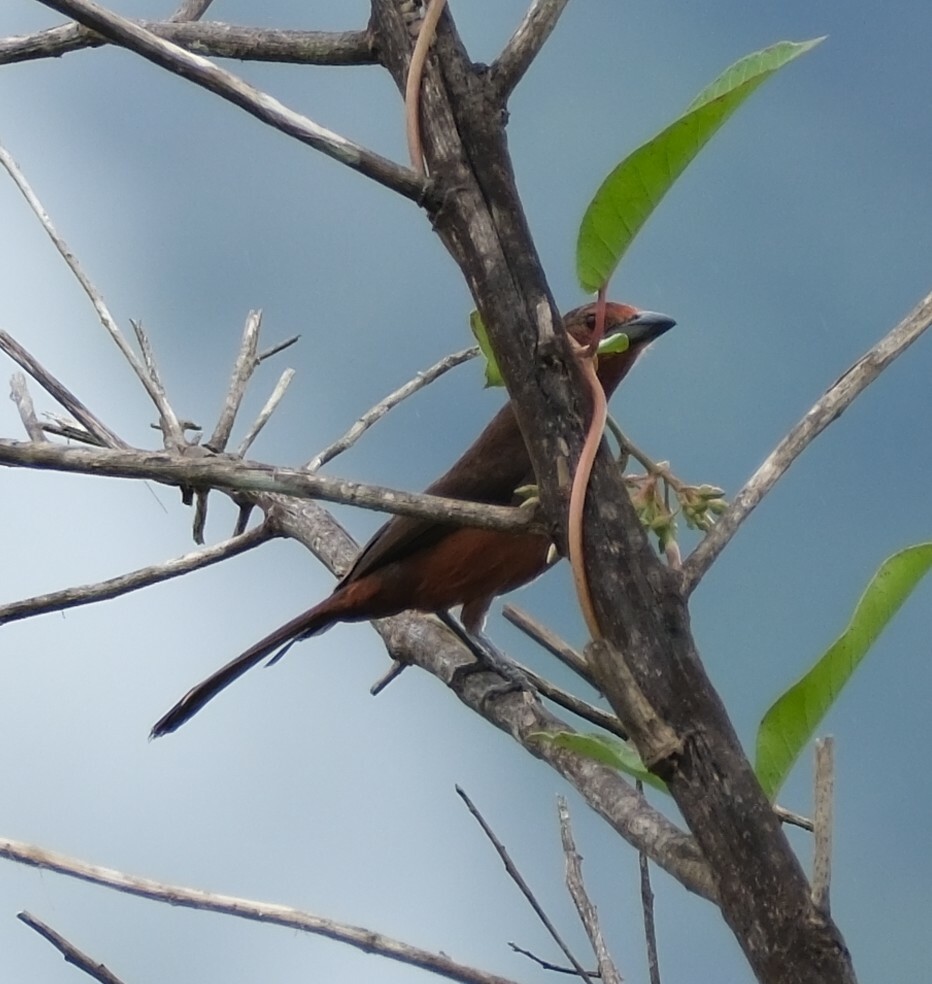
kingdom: Animalia
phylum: Chordata
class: Aves
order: Passeriformes
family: Thraupidae
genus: Ramphocelus
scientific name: Ramphocelus carbo
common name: Silver-beaked tanager
